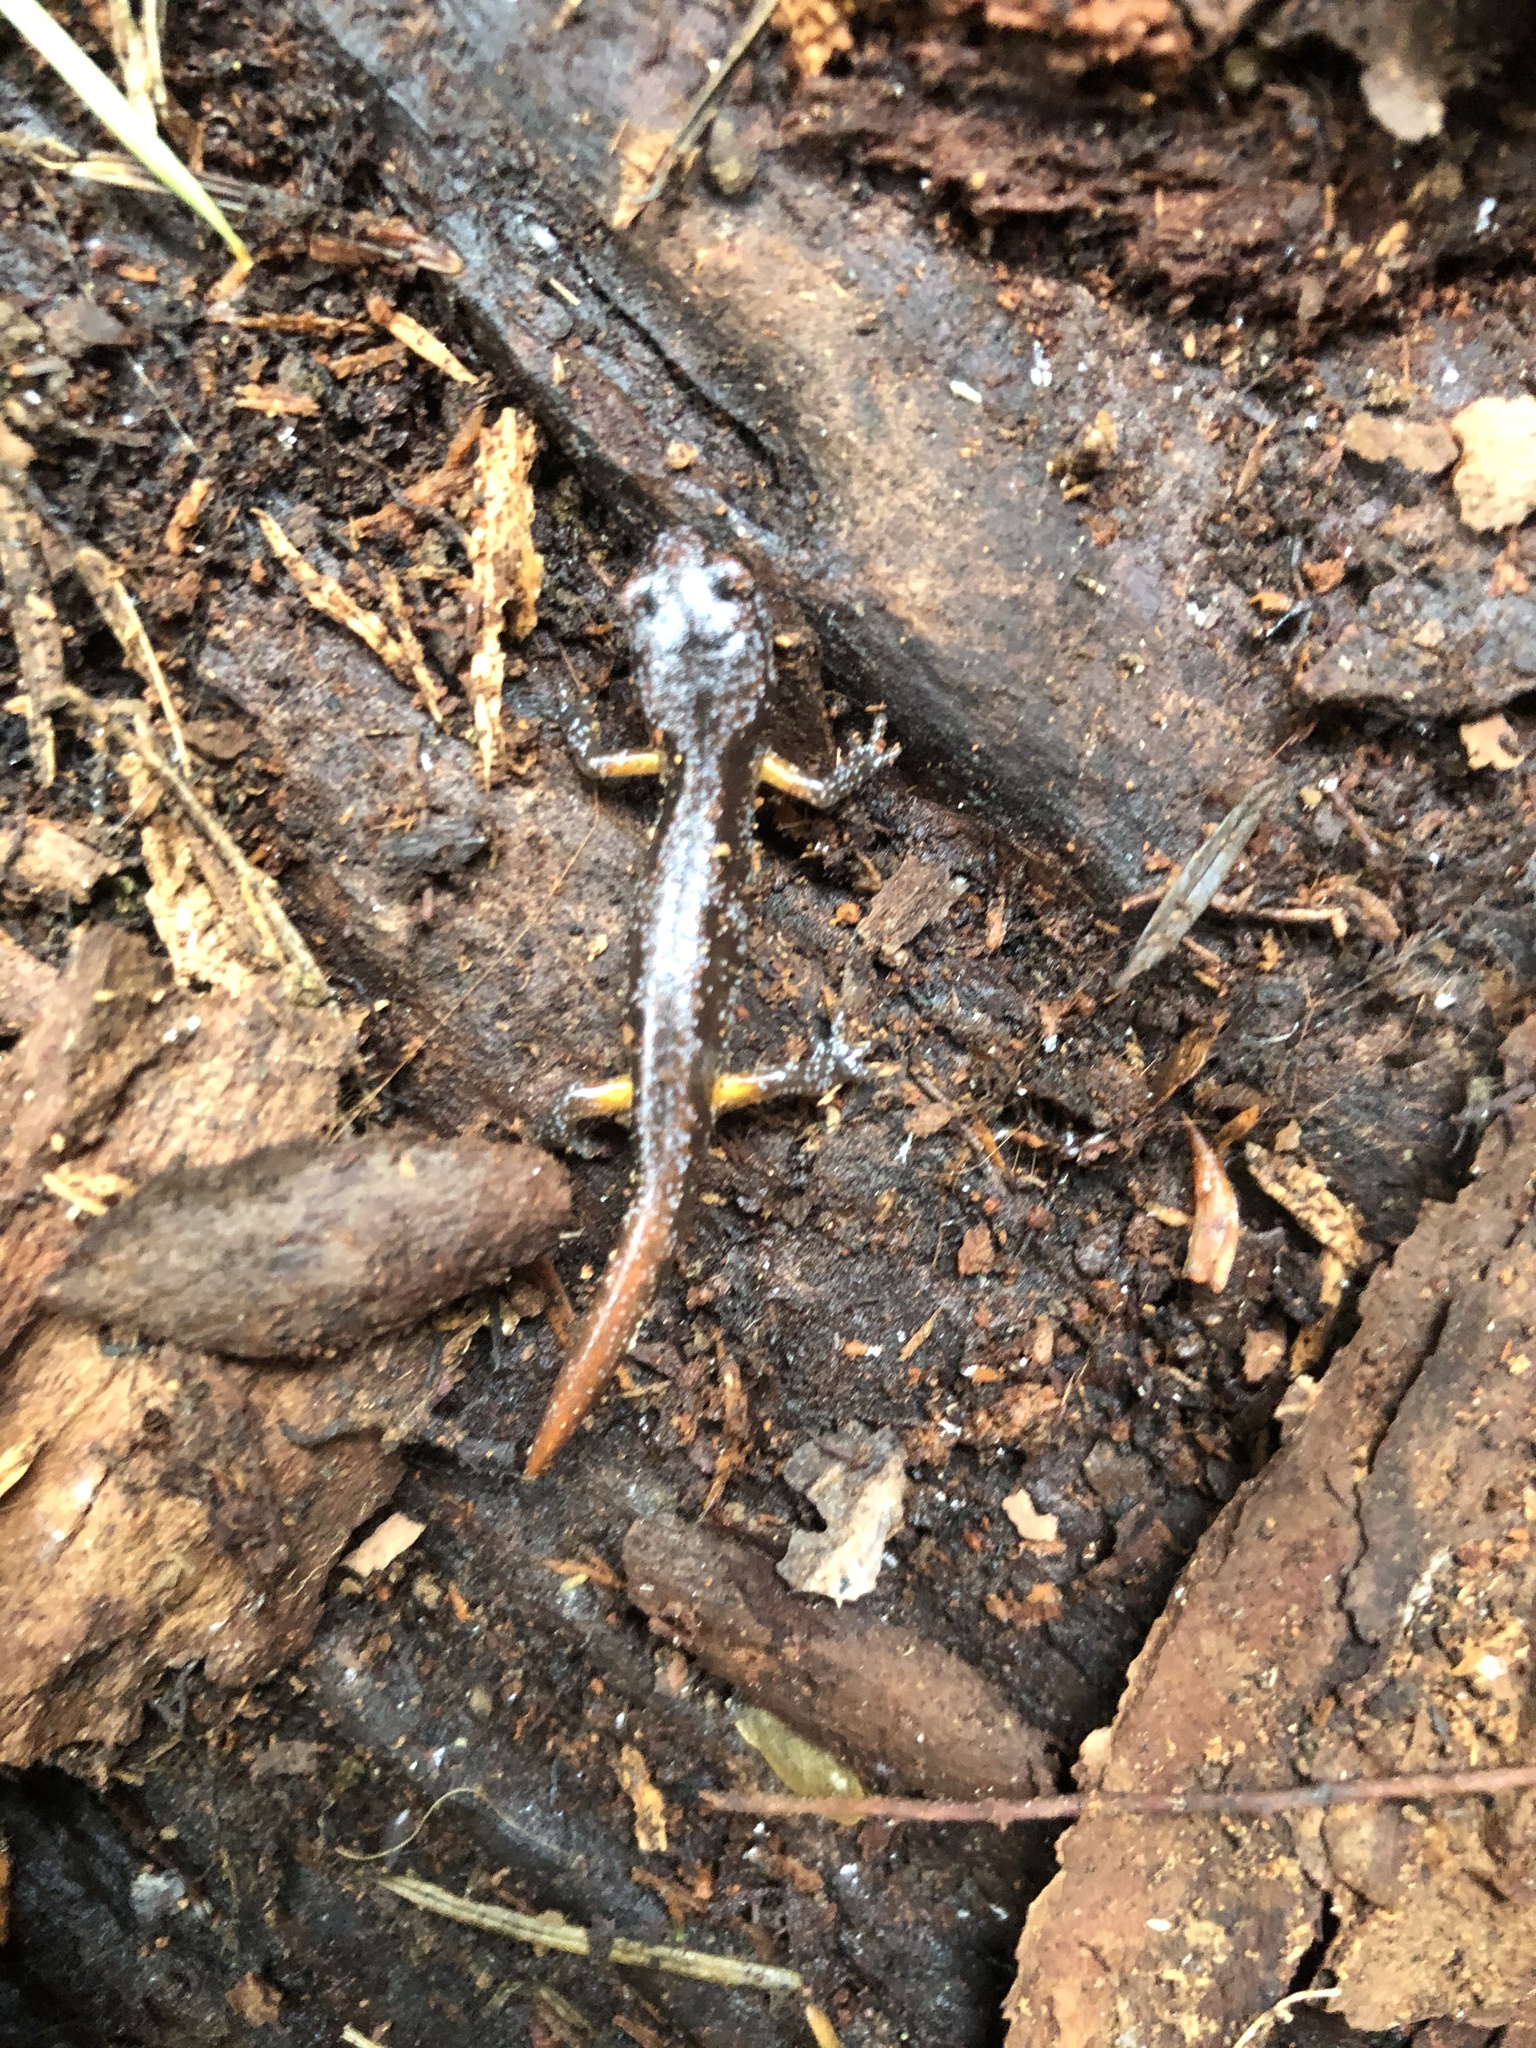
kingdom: Animalia
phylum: Chordata
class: Amphibia
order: Caudata
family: Plethodontidae
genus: Ensatina
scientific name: Ensatina eschscholtzii
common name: Ensatina
